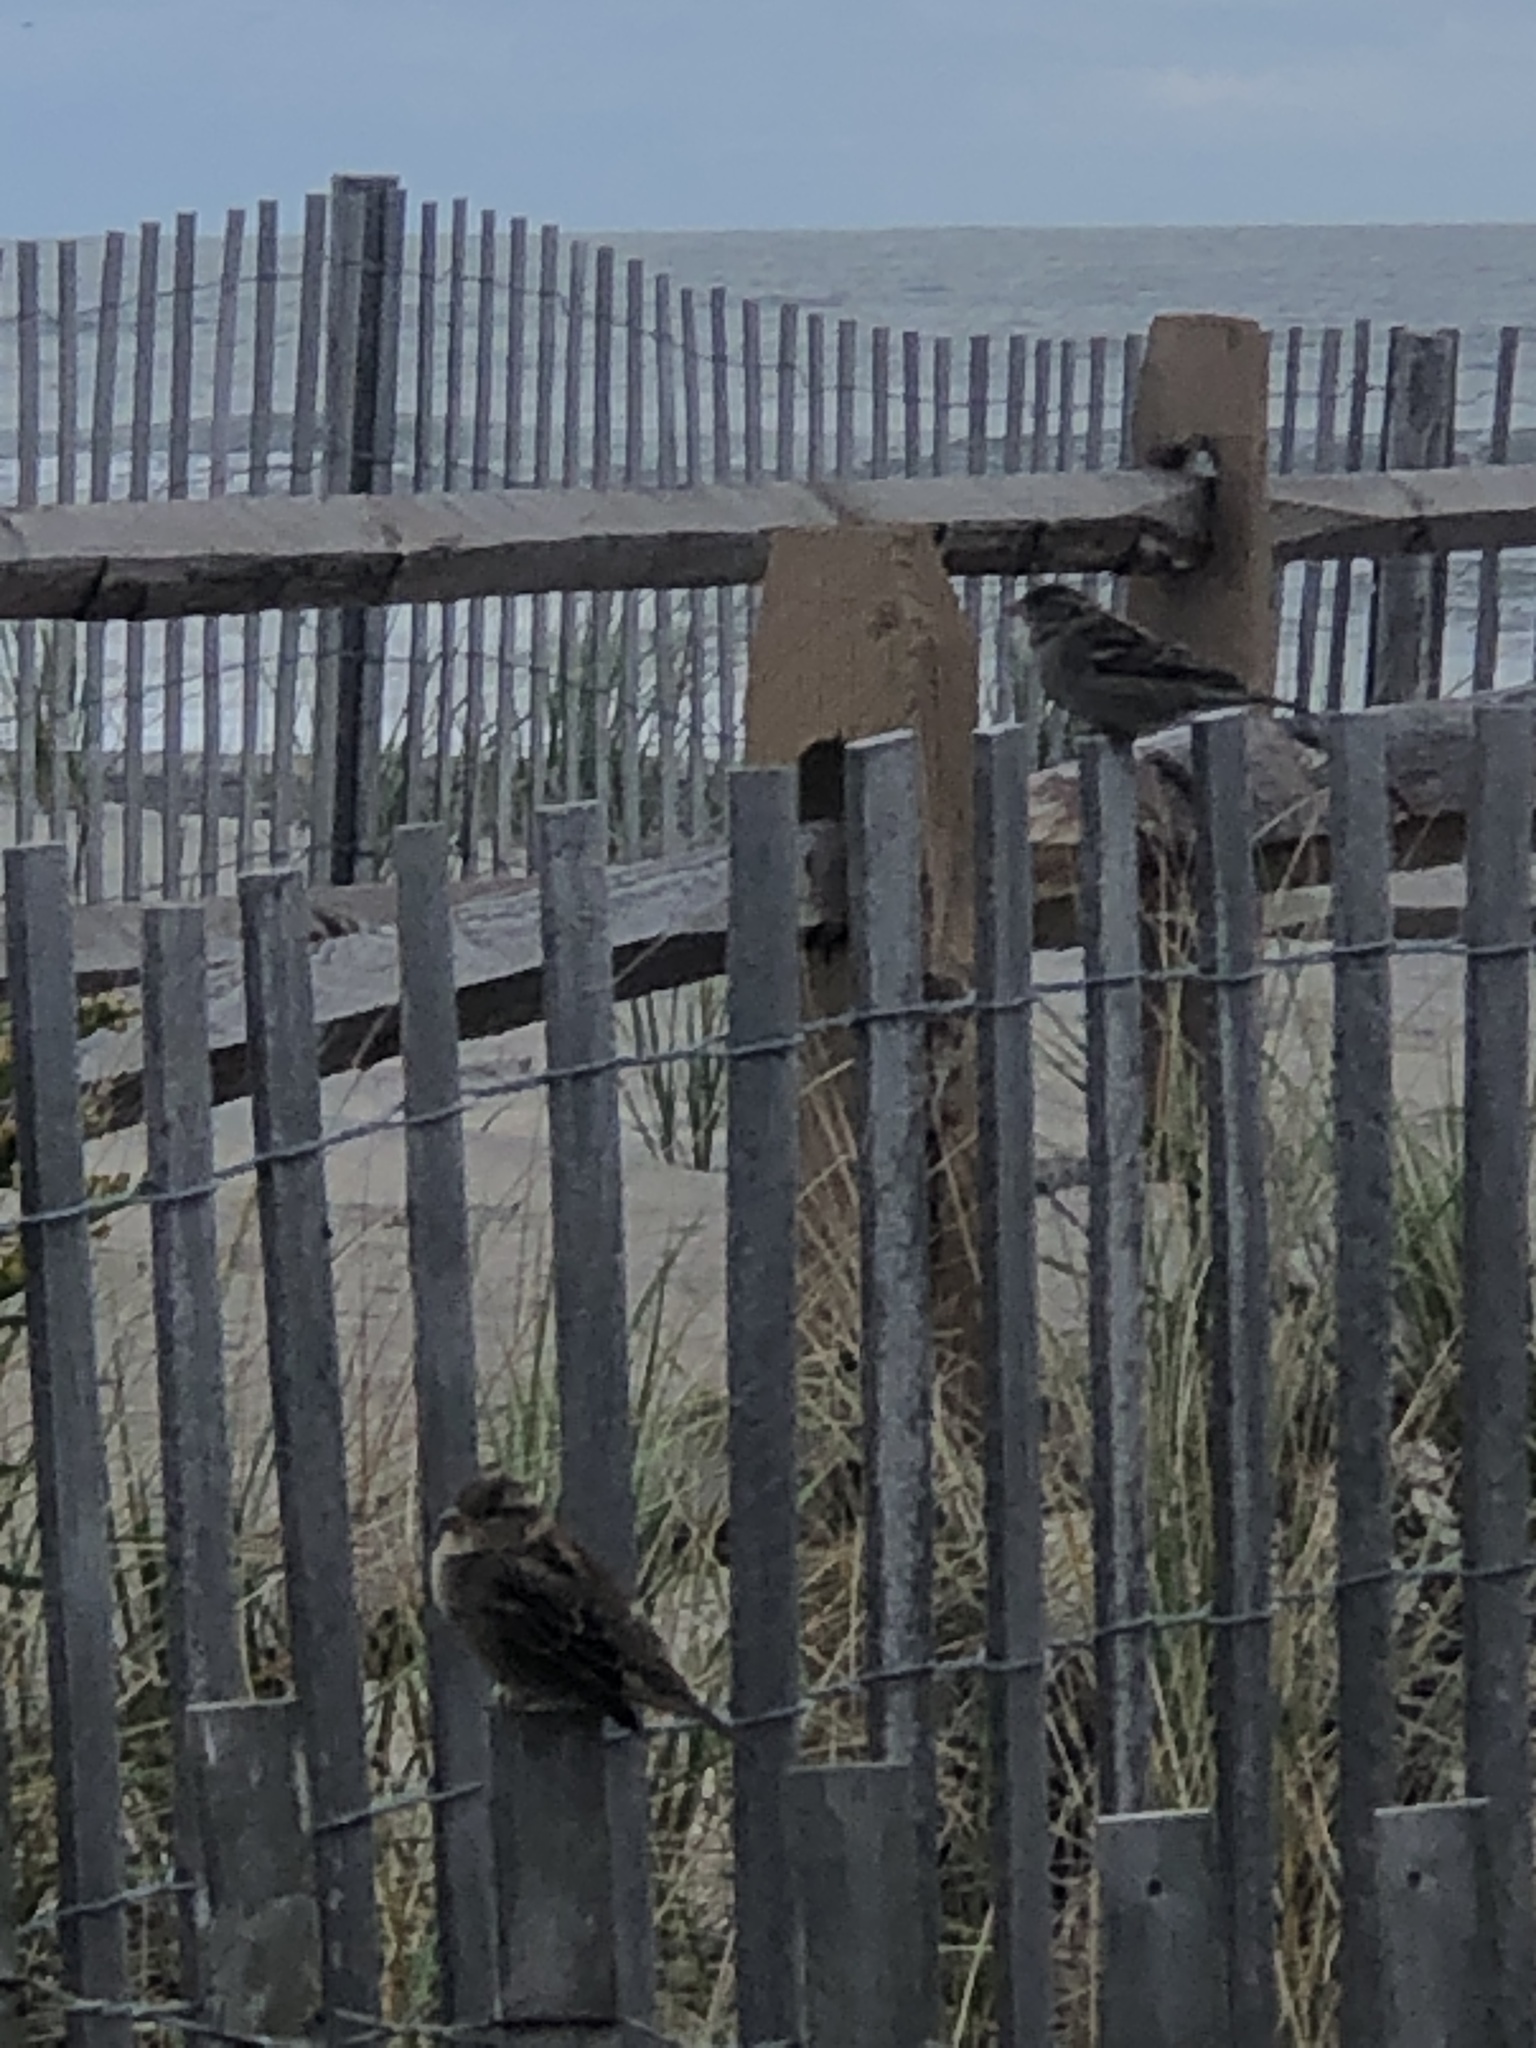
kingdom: Animalia
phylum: Chordata
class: Aves
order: Passeriformes
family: Passeridae
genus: Passer
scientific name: Passer domesticus
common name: House sparrow
